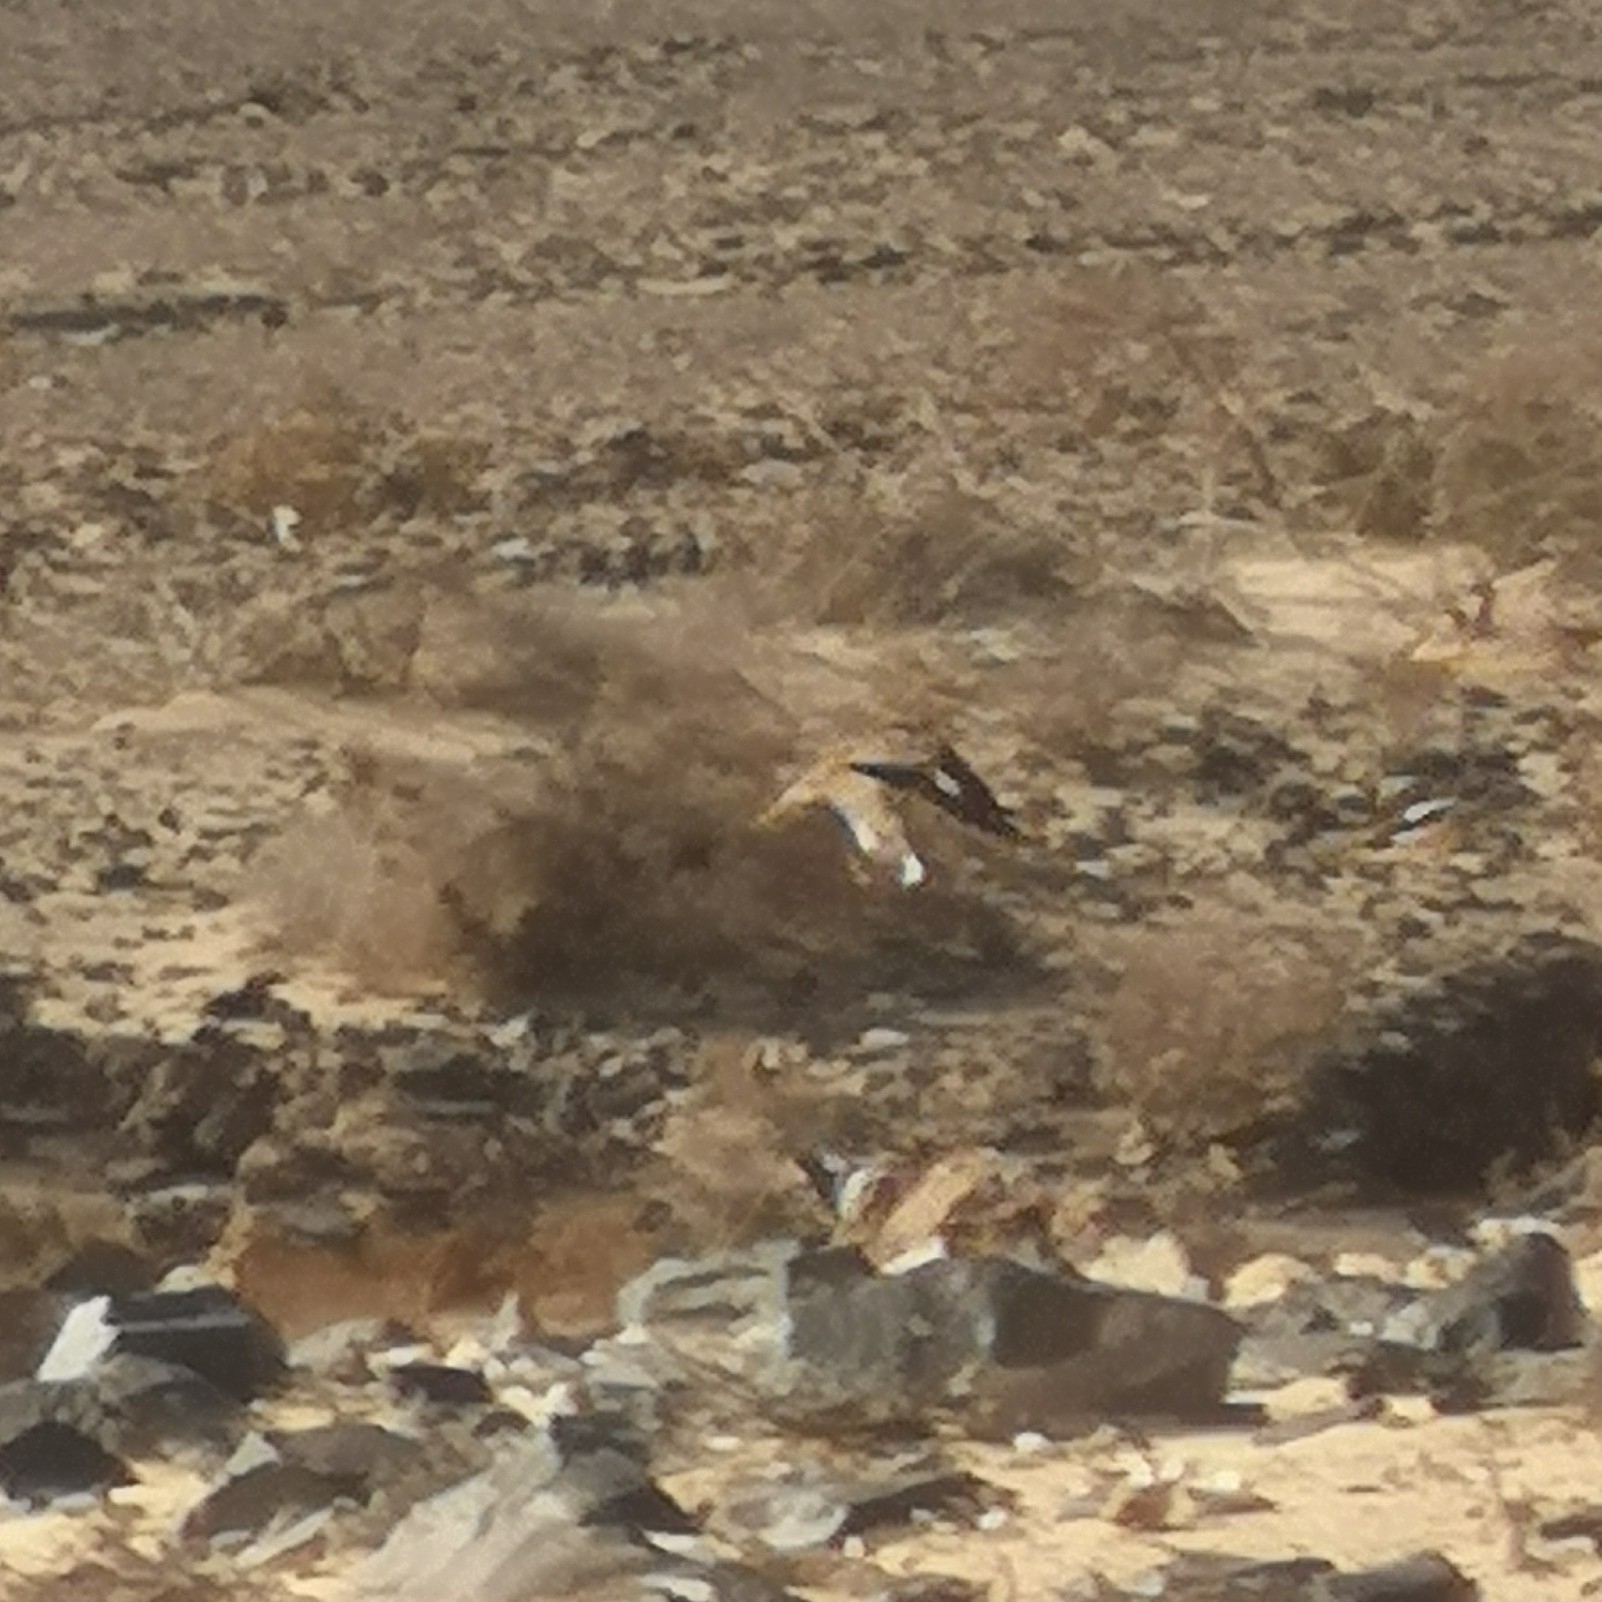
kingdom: Animalia
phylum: Chordata
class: Aves
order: Charadriiformes
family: Burhinidae
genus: Burhinus
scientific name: Burhinus oedicnemus
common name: Eurasian stone-curlew
